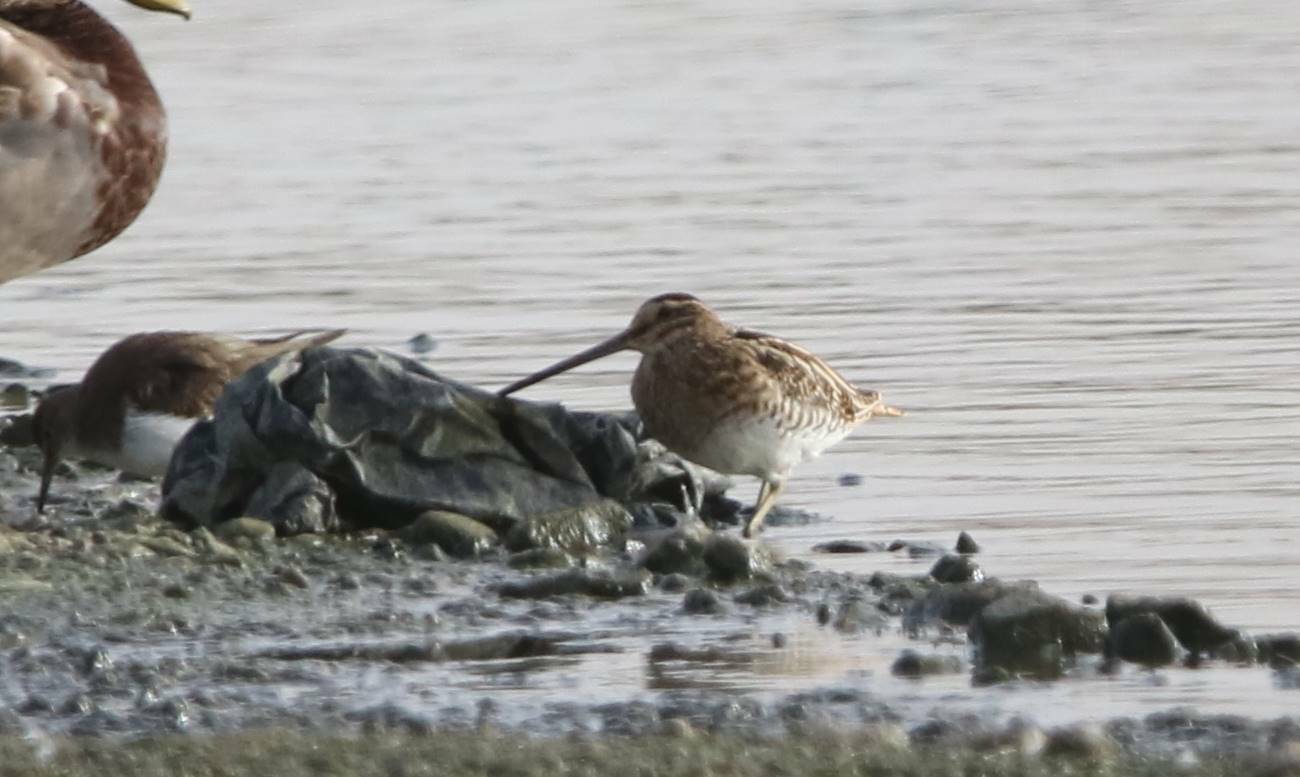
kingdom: Animalia
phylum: Chordata
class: Aves
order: Charadriiformes
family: Scolopacidae
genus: Gallinago
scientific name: Gallinago gallinago
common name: Common snipe
